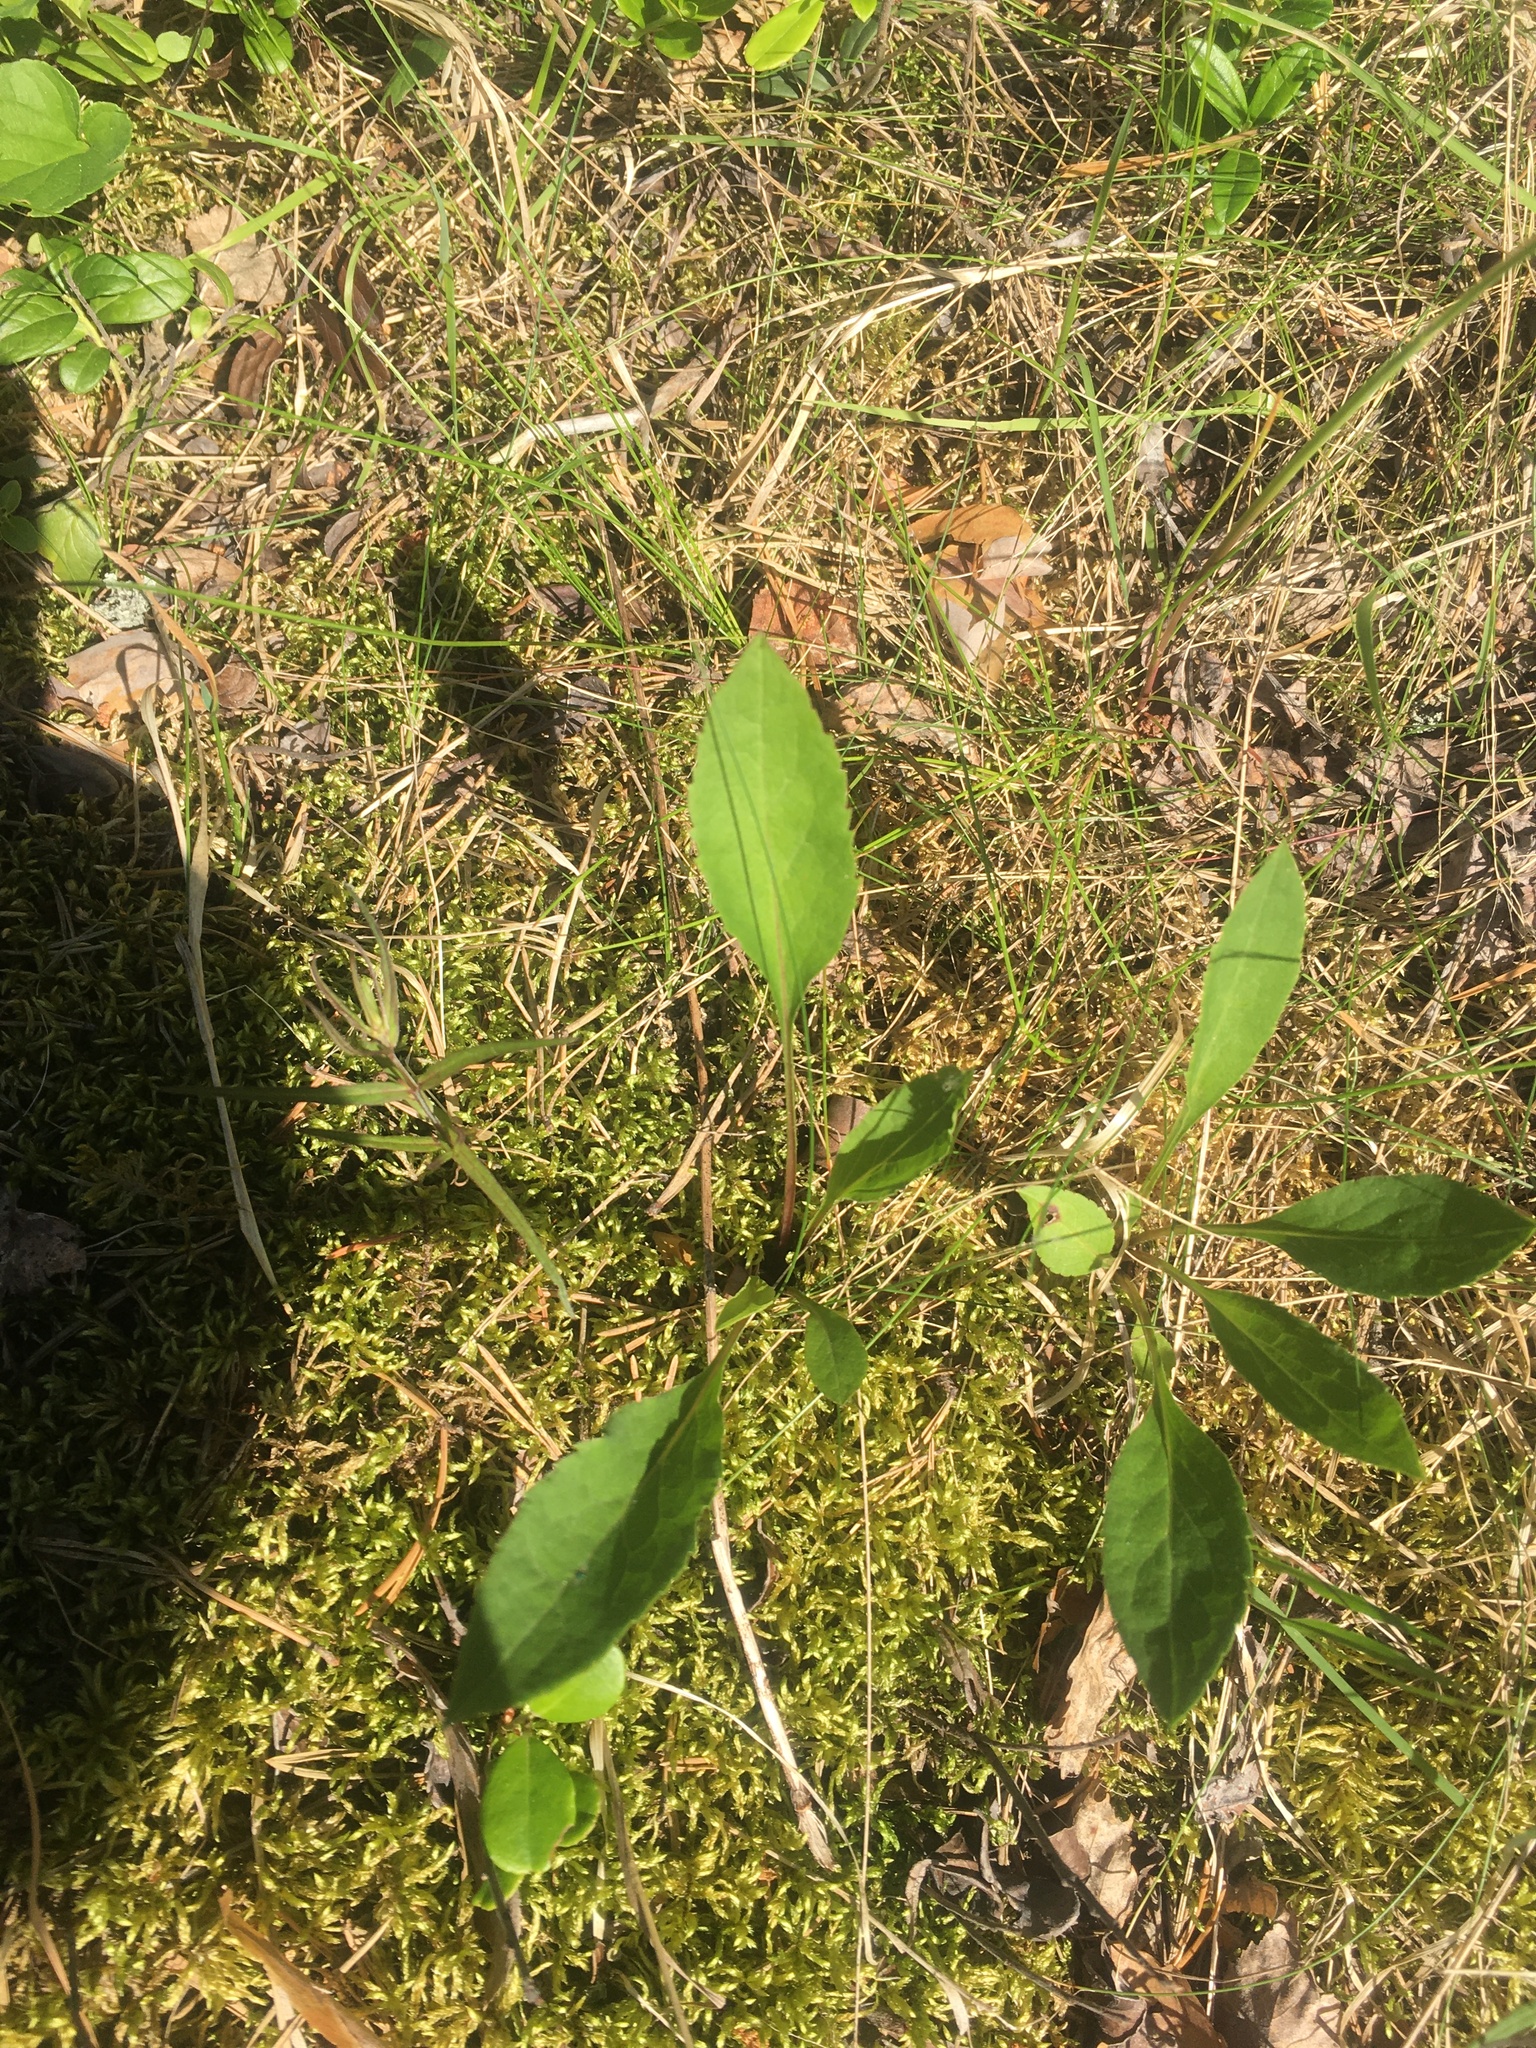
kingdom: Plantae
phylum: Tracheophyta
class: Magnoliopsida
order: Asterales
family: Asteraceae
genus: Solidago
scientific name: Solidago virgaurea
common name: Goldenrod
